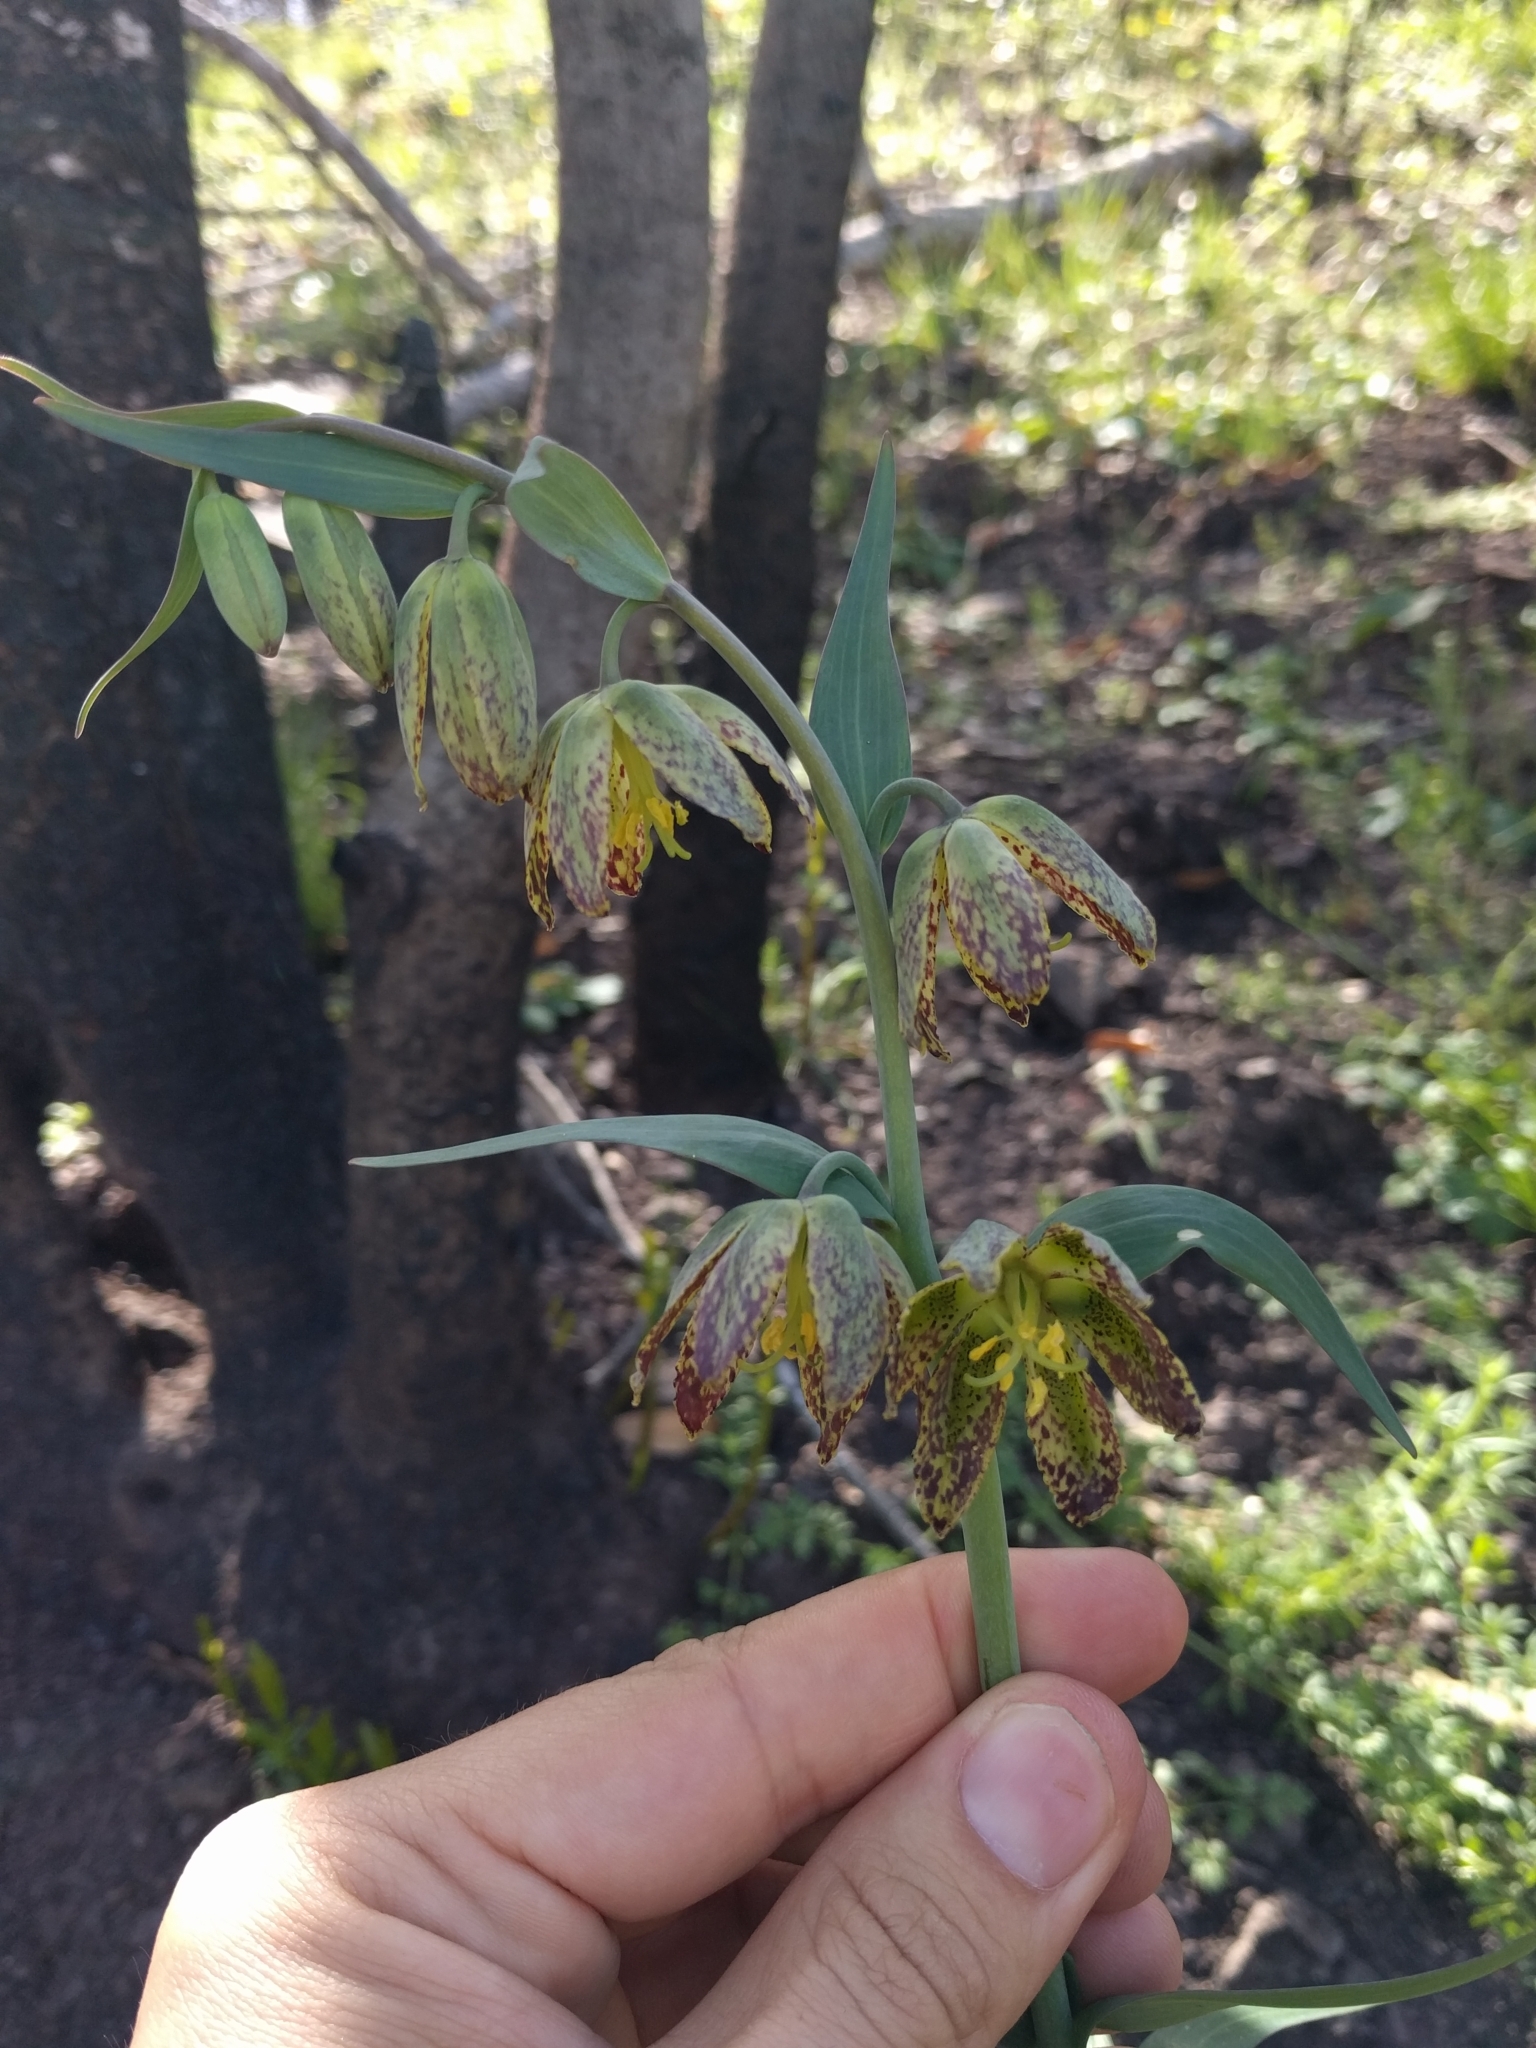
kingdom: Plantae
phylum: Tracheophyta
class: Liliopsida
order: Liliales
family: Liliaceae
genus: Fritillaria
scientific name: Fritillaria affinis
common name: Ojai fritillary
